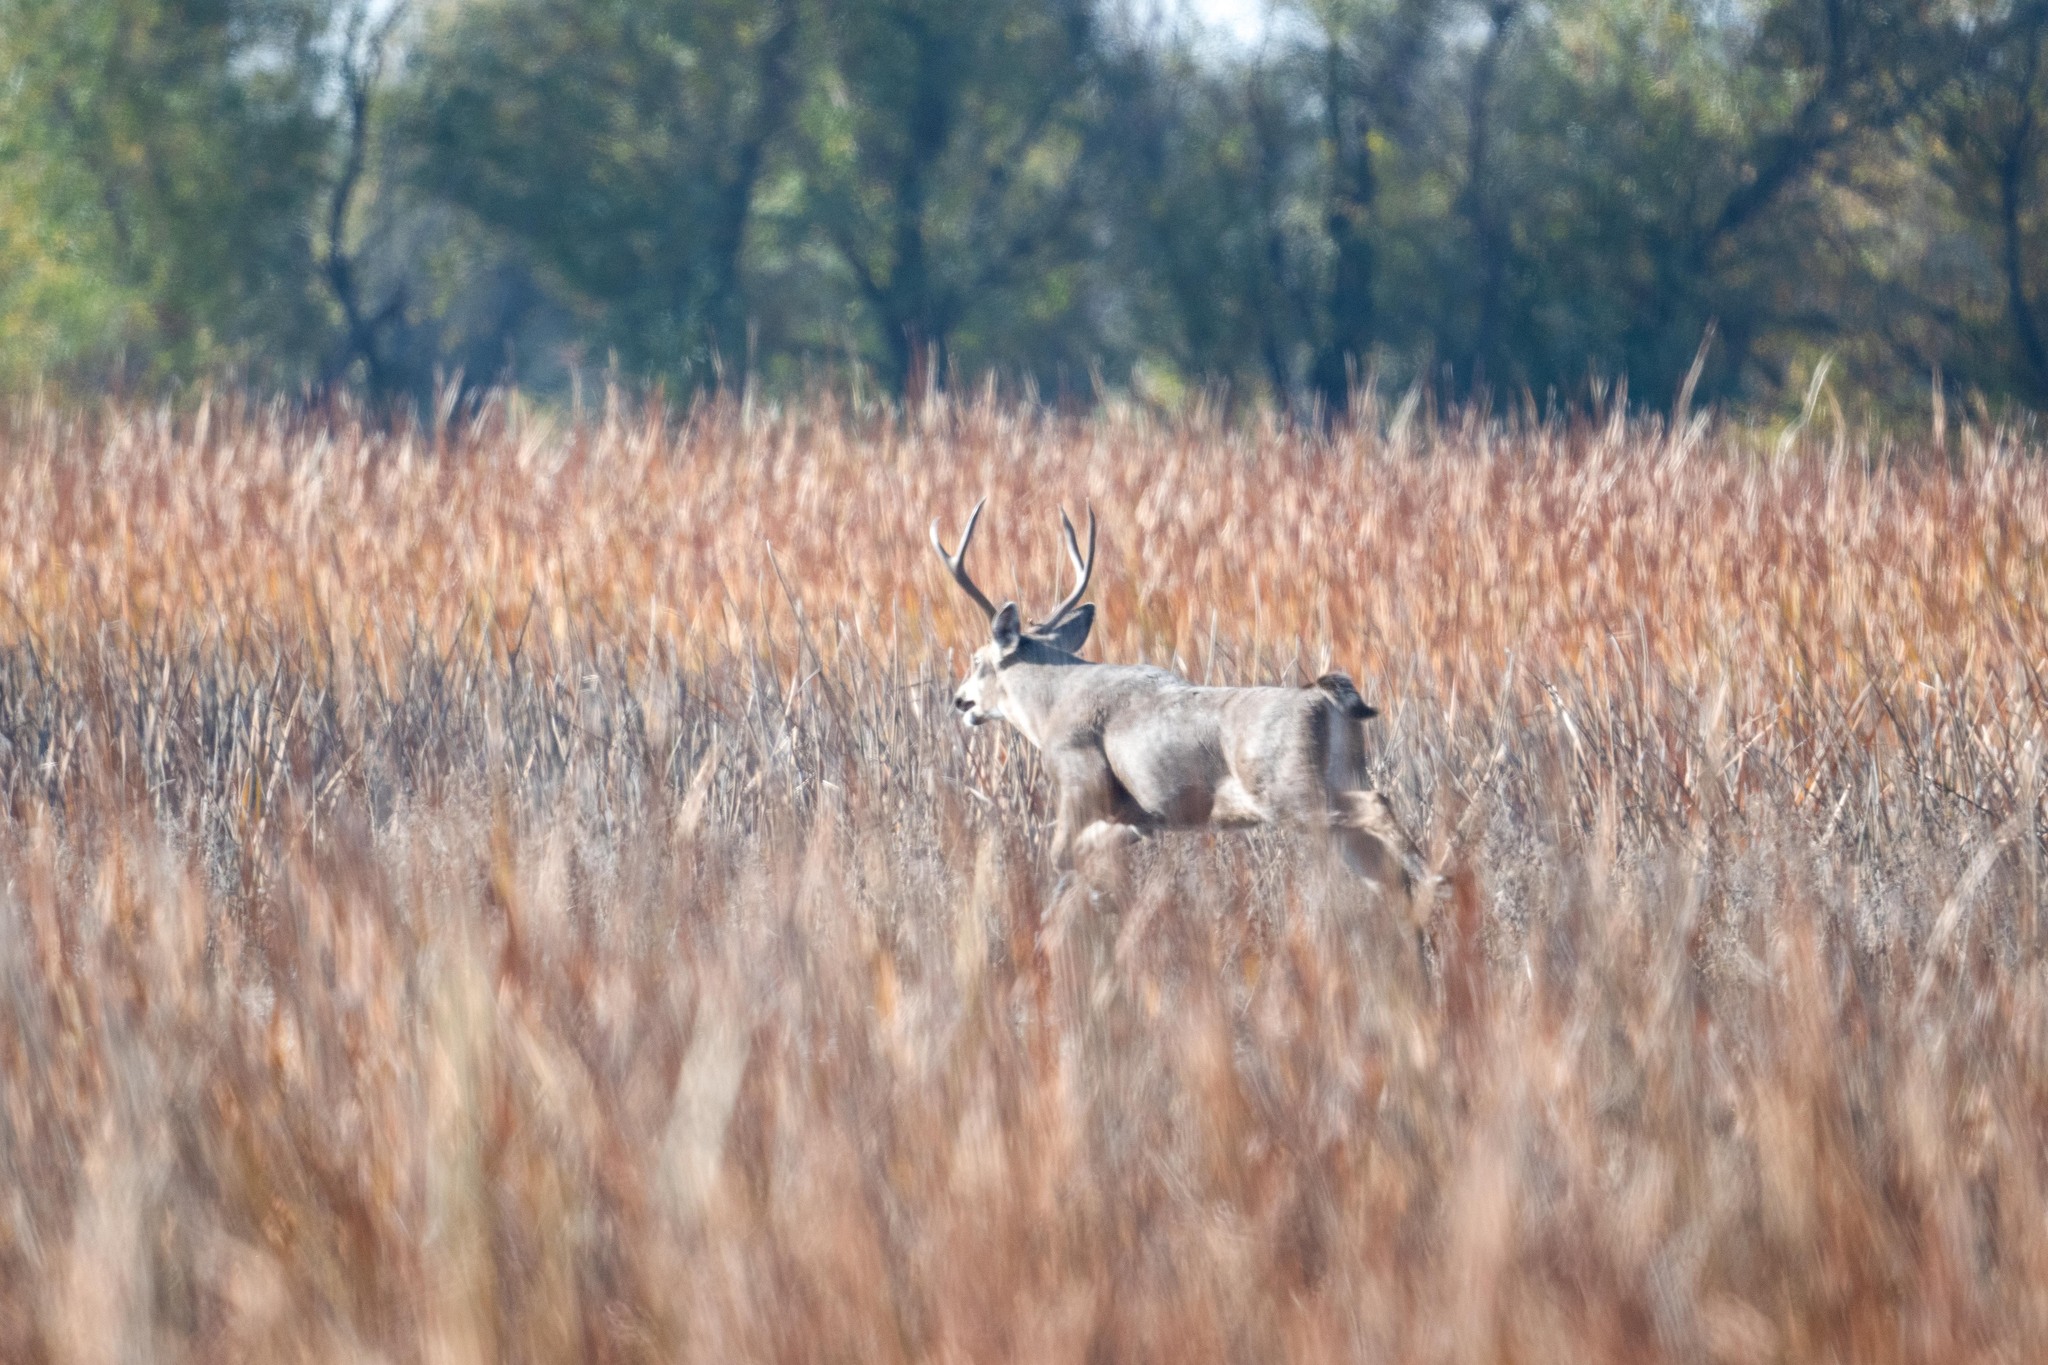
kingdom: Animalia
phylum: Chordata
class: Mammalia
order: Artiodactyla
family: Cervidae
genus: Odocoileus
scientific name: Odocoileus hemionus
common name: Mule deer
